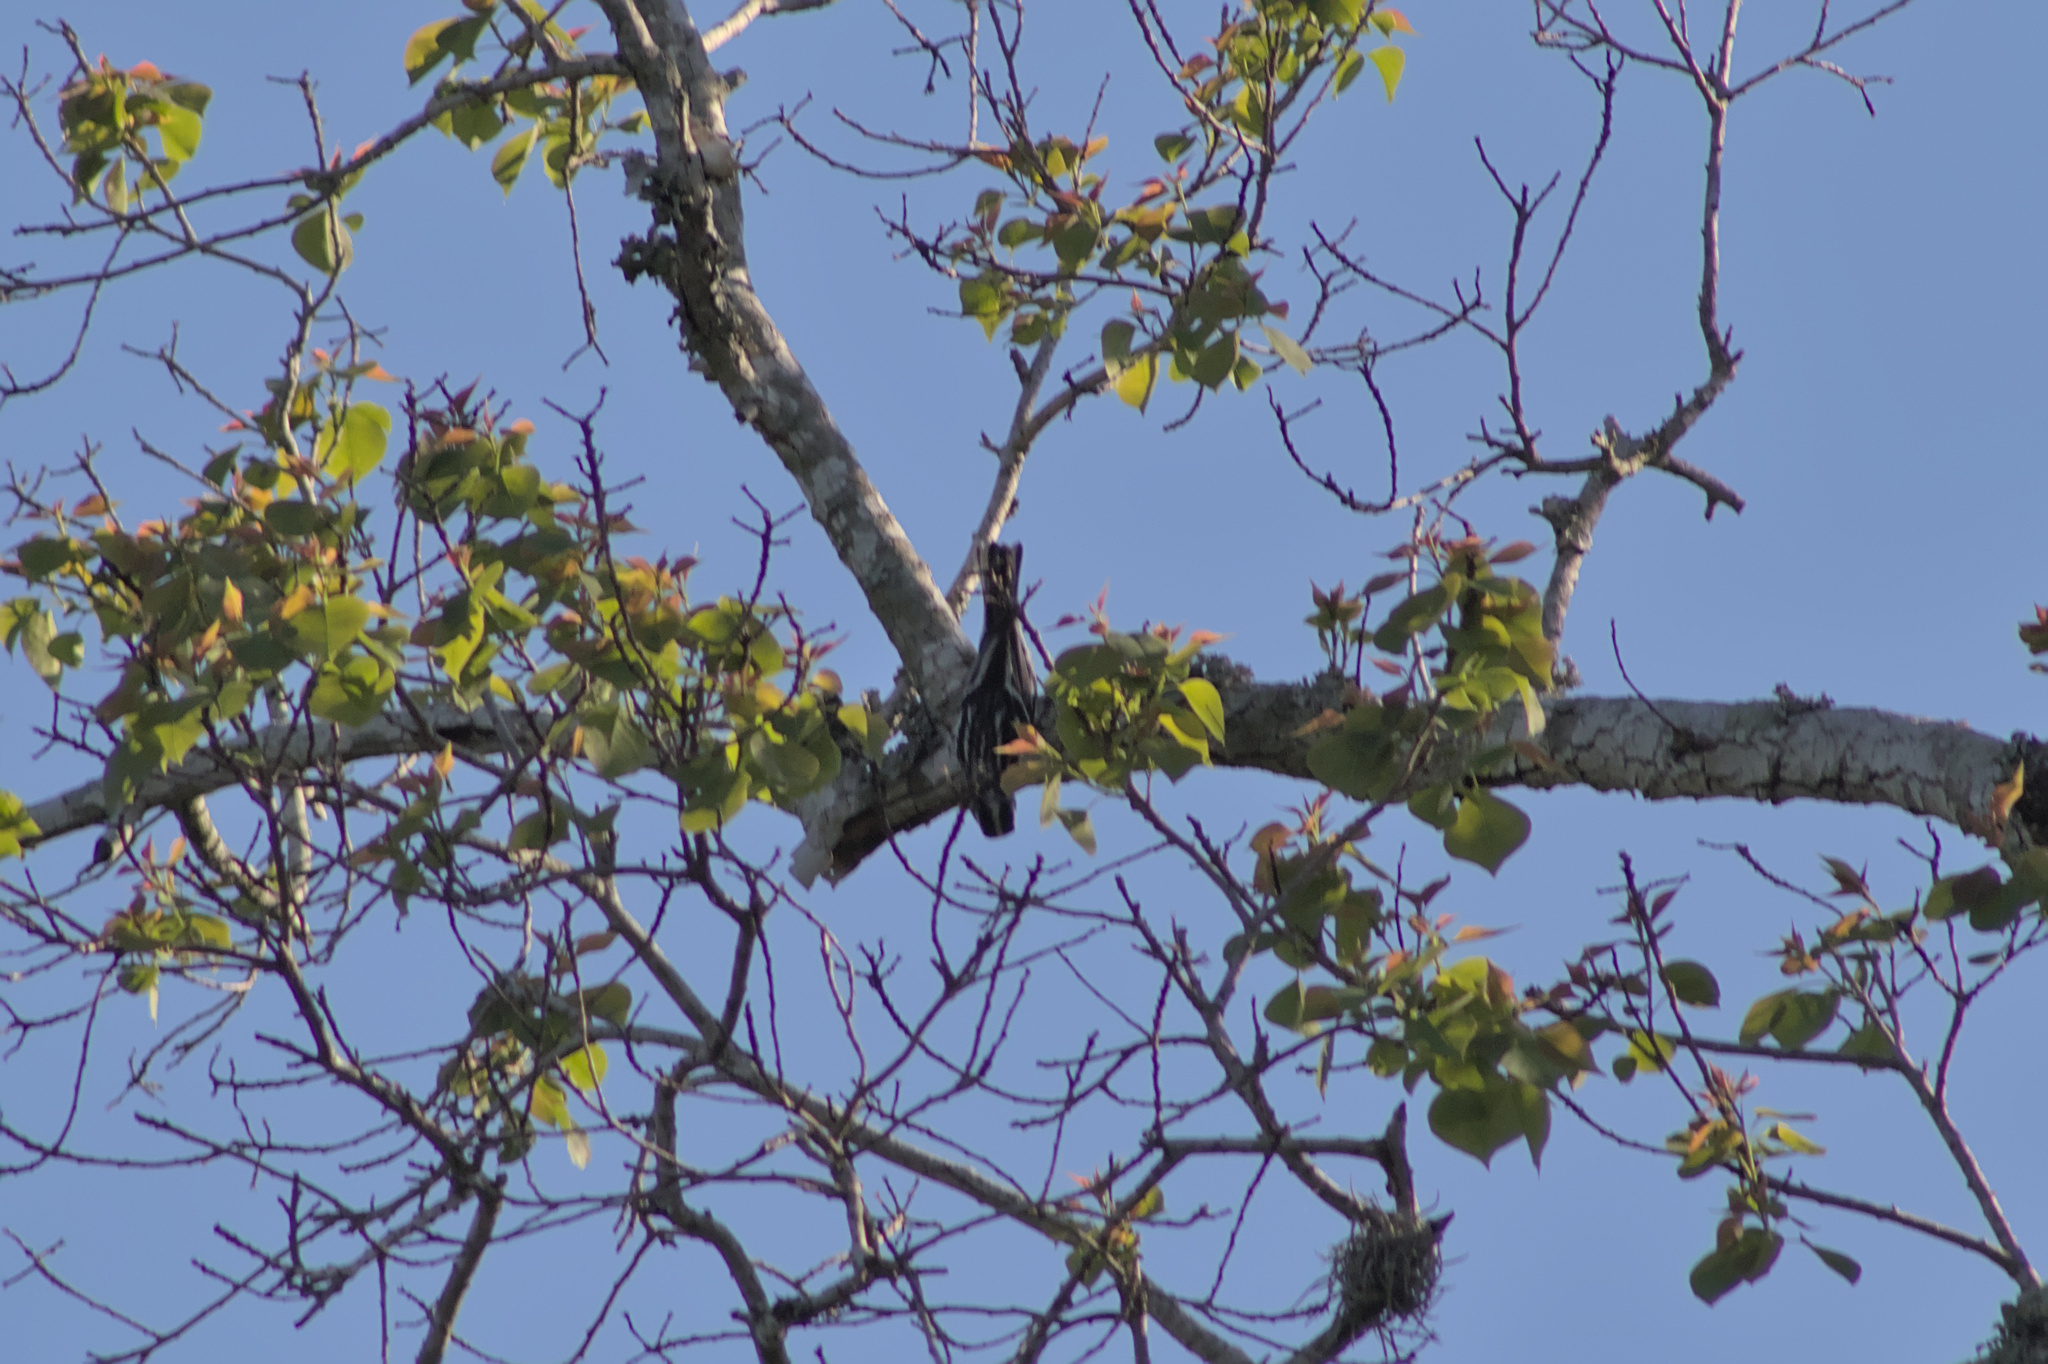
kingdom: Animalia
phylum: Chordata
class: Aves
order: Passeriformes
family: Parulidae
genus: Mniotilta
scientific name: Mniotilta varia
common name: Black-and-white warbler
